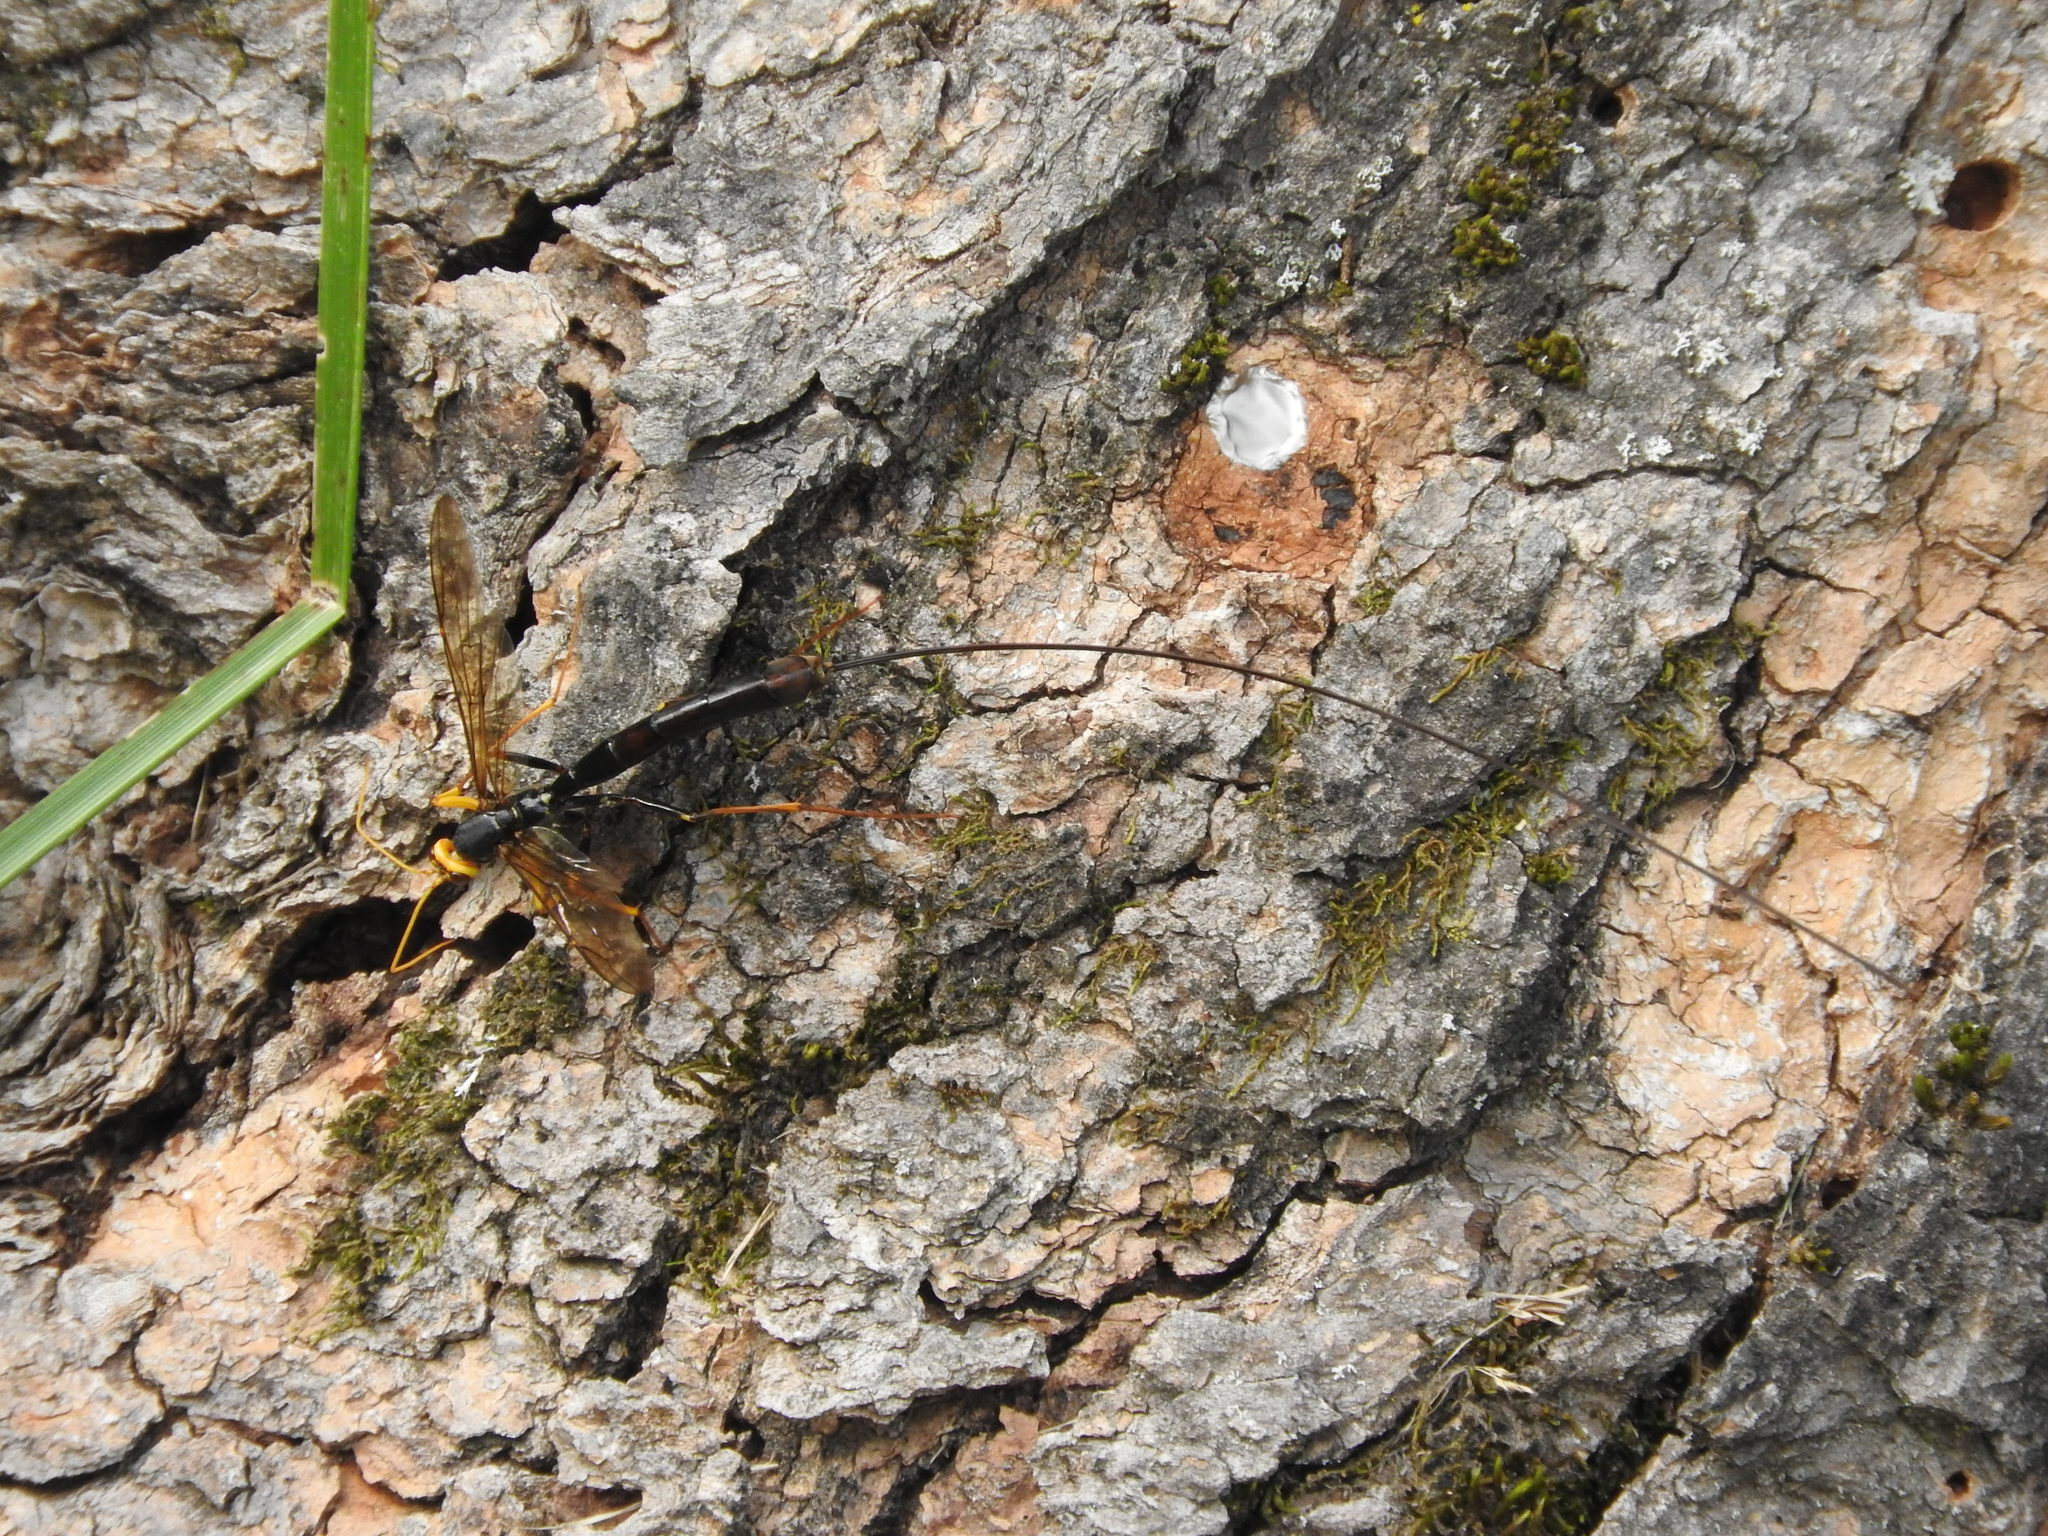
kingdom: Animalia
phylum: Arthropoda
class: Insecta
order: Hymenoptera
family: Ichneumonidae
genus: Megarhyssa
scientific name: Megarhyssa atrata
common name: Black giant ichneumonid wasp
